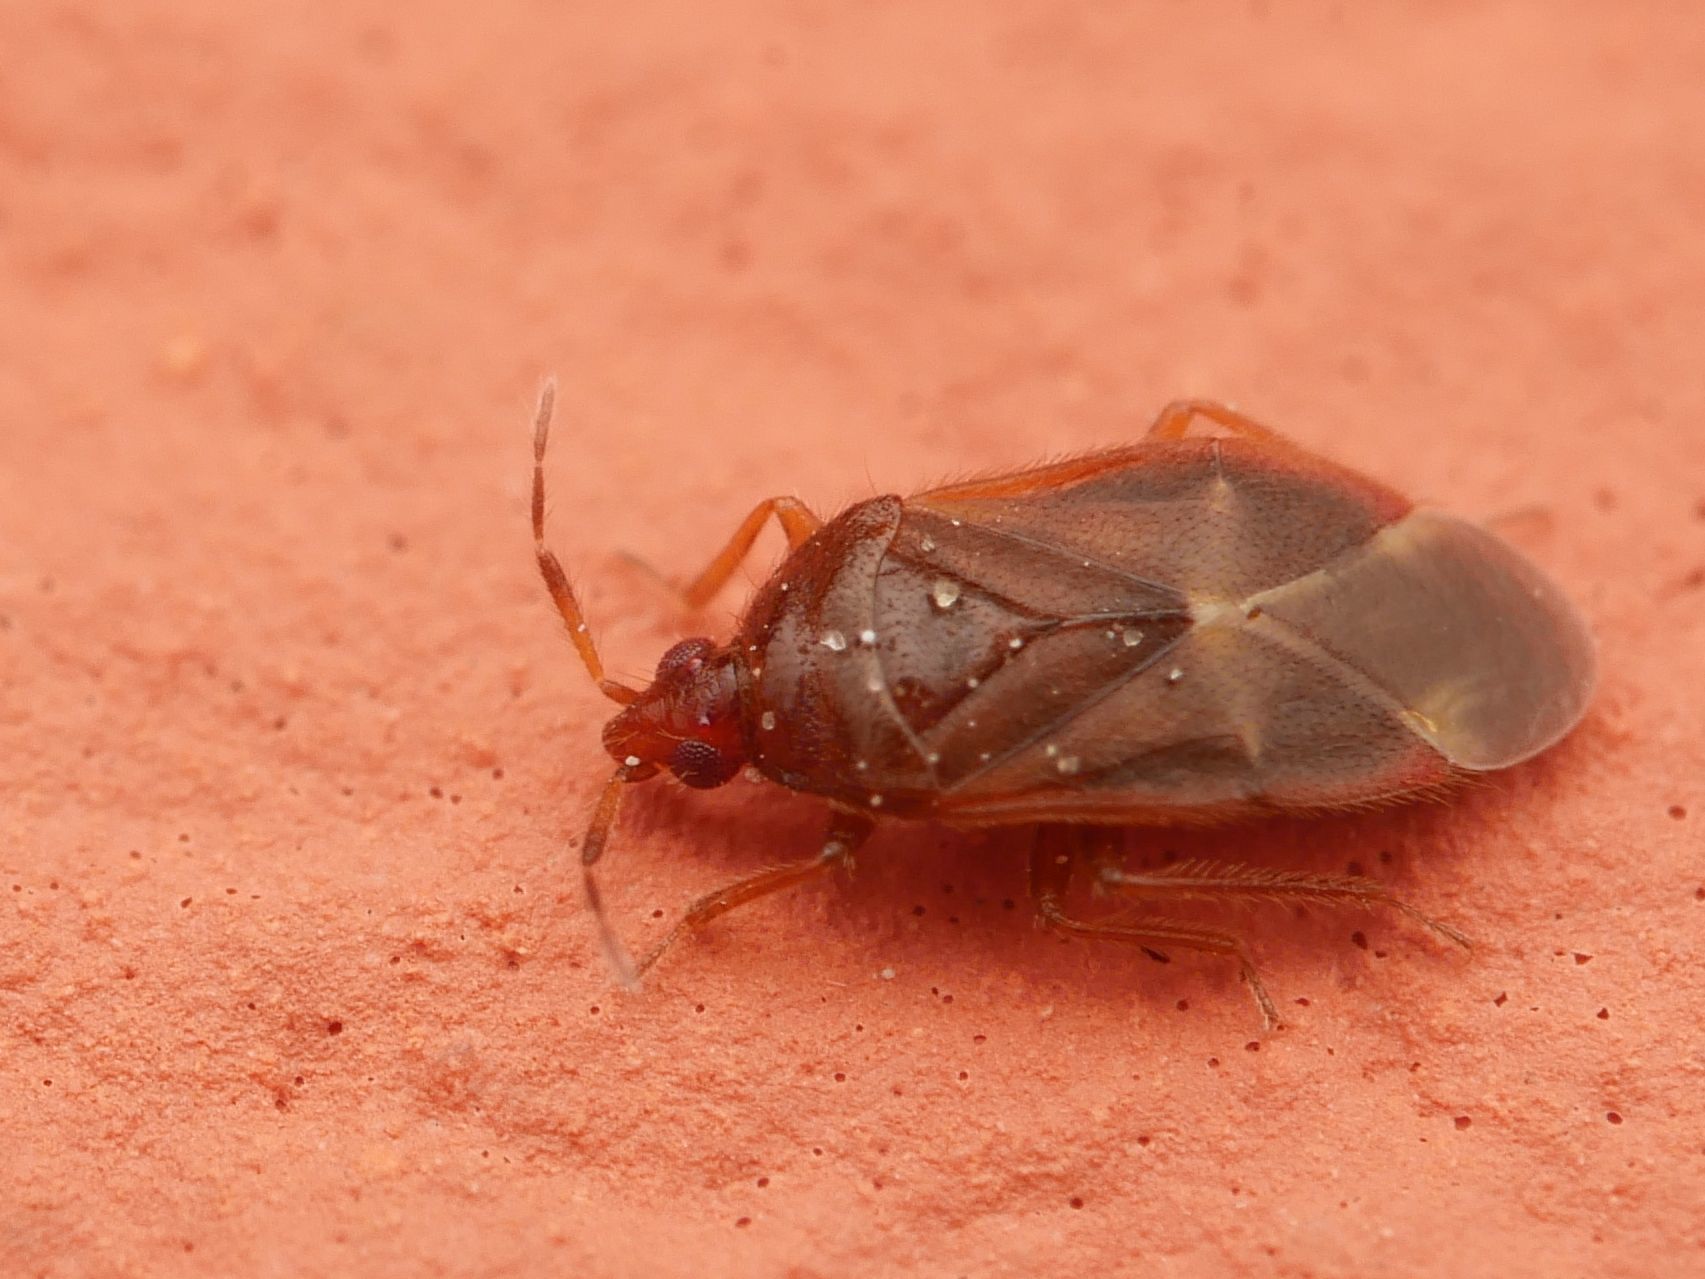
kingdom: Animalia
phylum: Arthropoda
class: Insecta
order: Hemiptera
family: Anthocoridae
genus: Cardiastethus
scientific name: Cardiastethus fasciiventris
